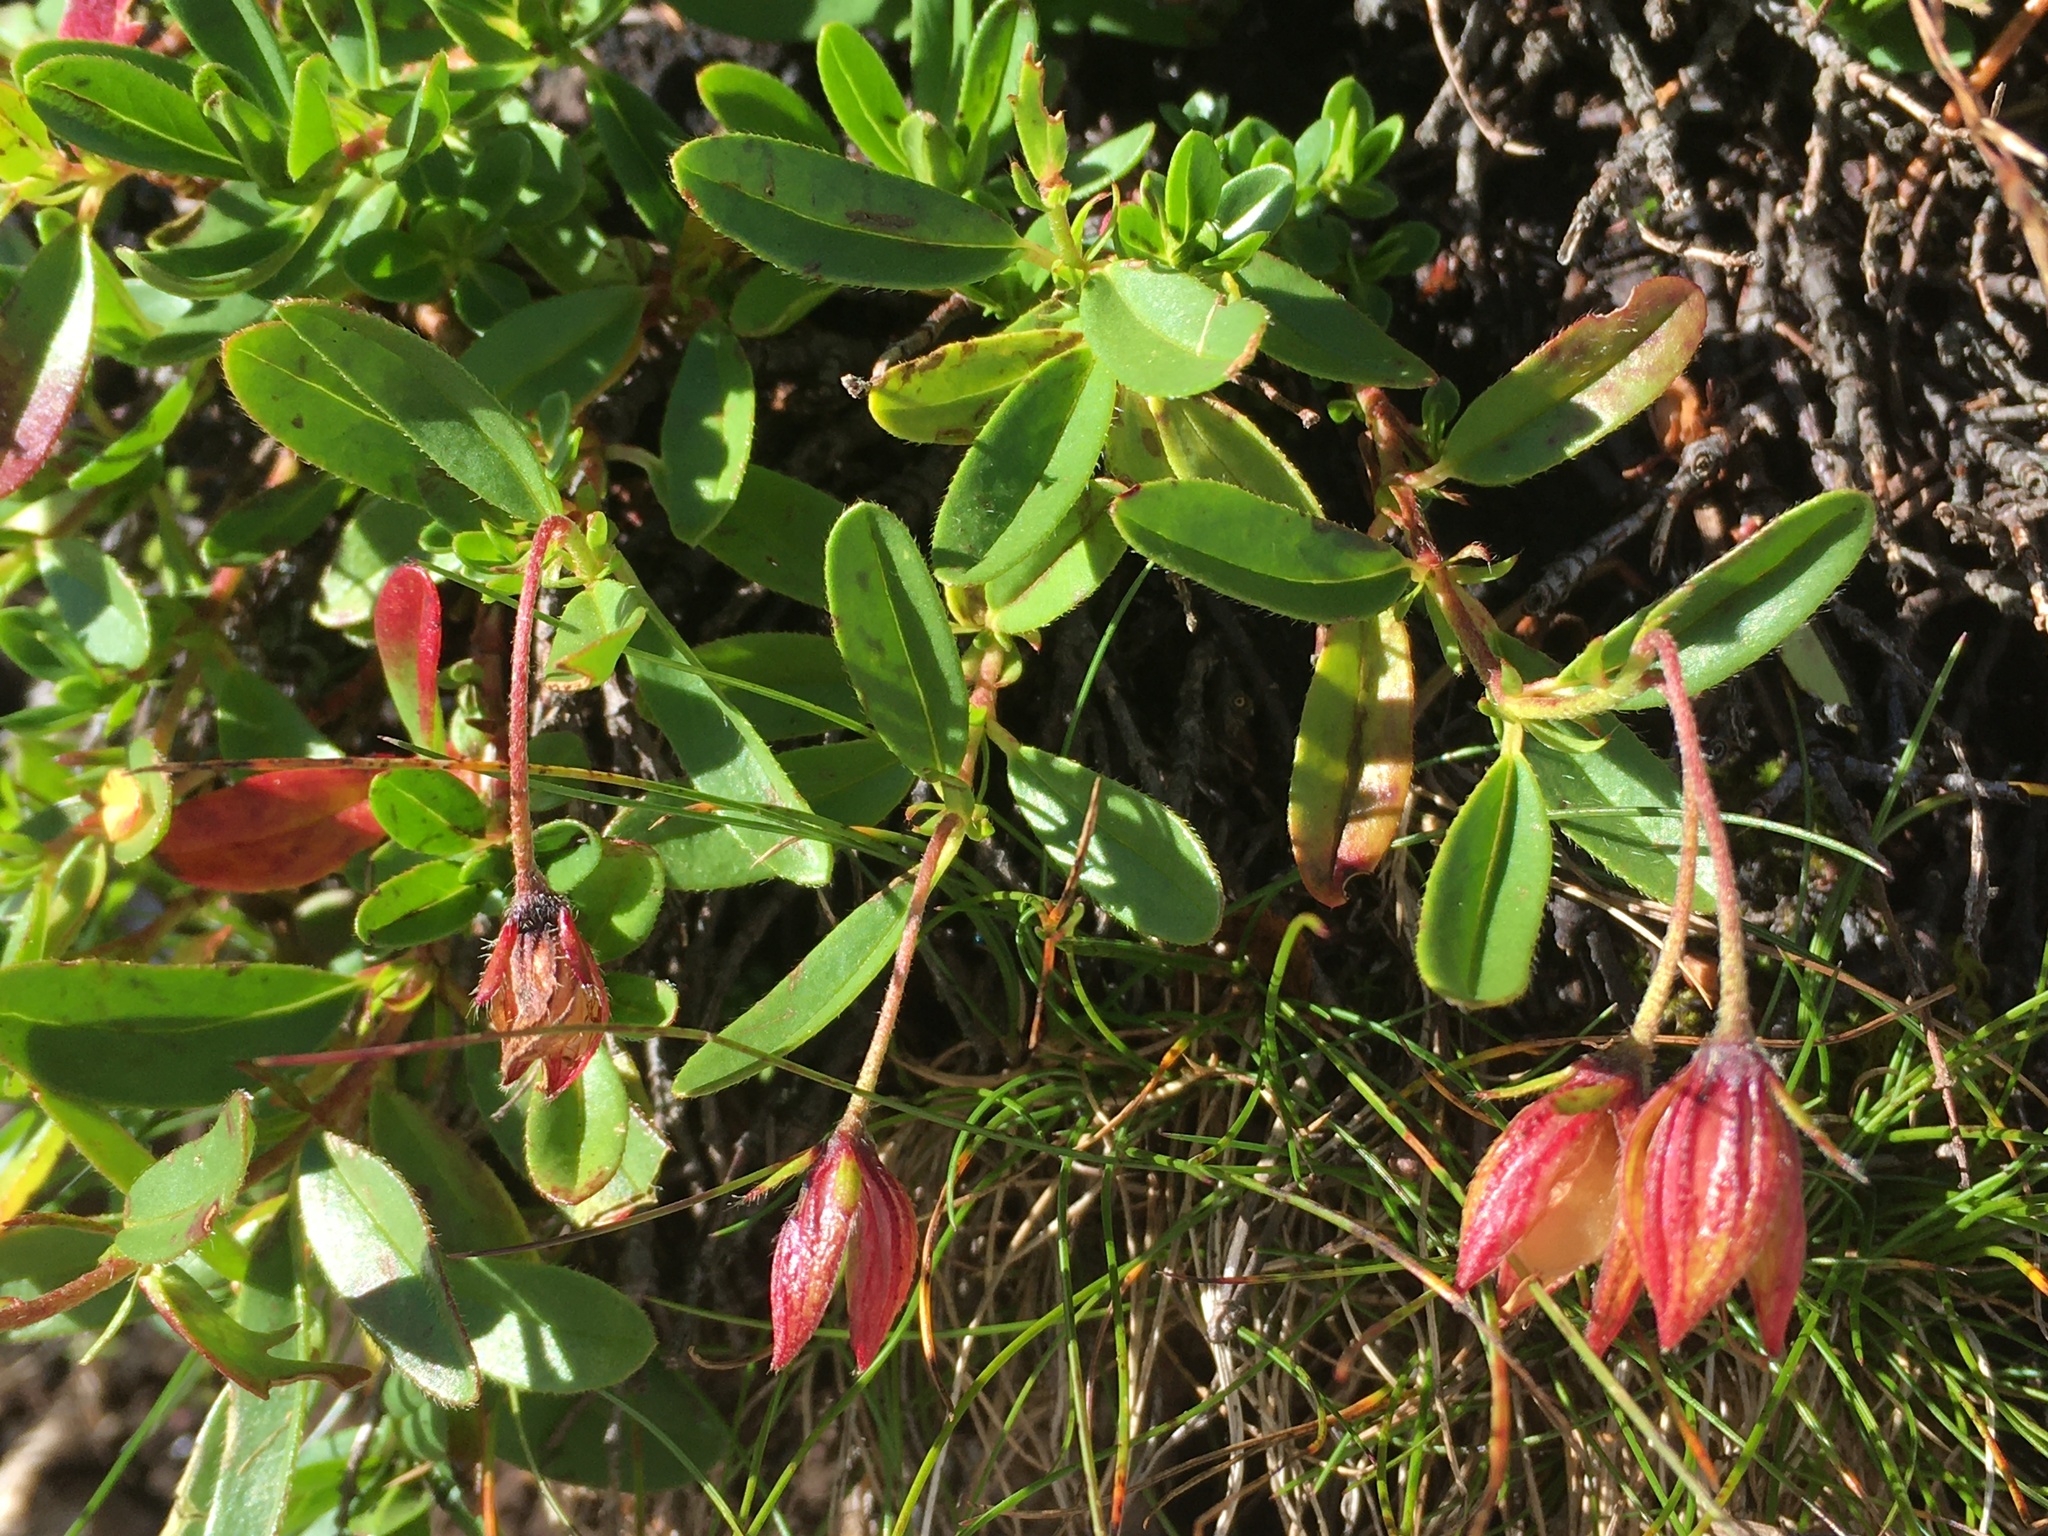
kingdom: Plantae
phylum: Tracheophyta
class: Magnoliopsida
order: Malvales
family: Cistaceae
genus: Helianthemum
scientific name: Helianthemum nummularium
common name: Common rock-rose
